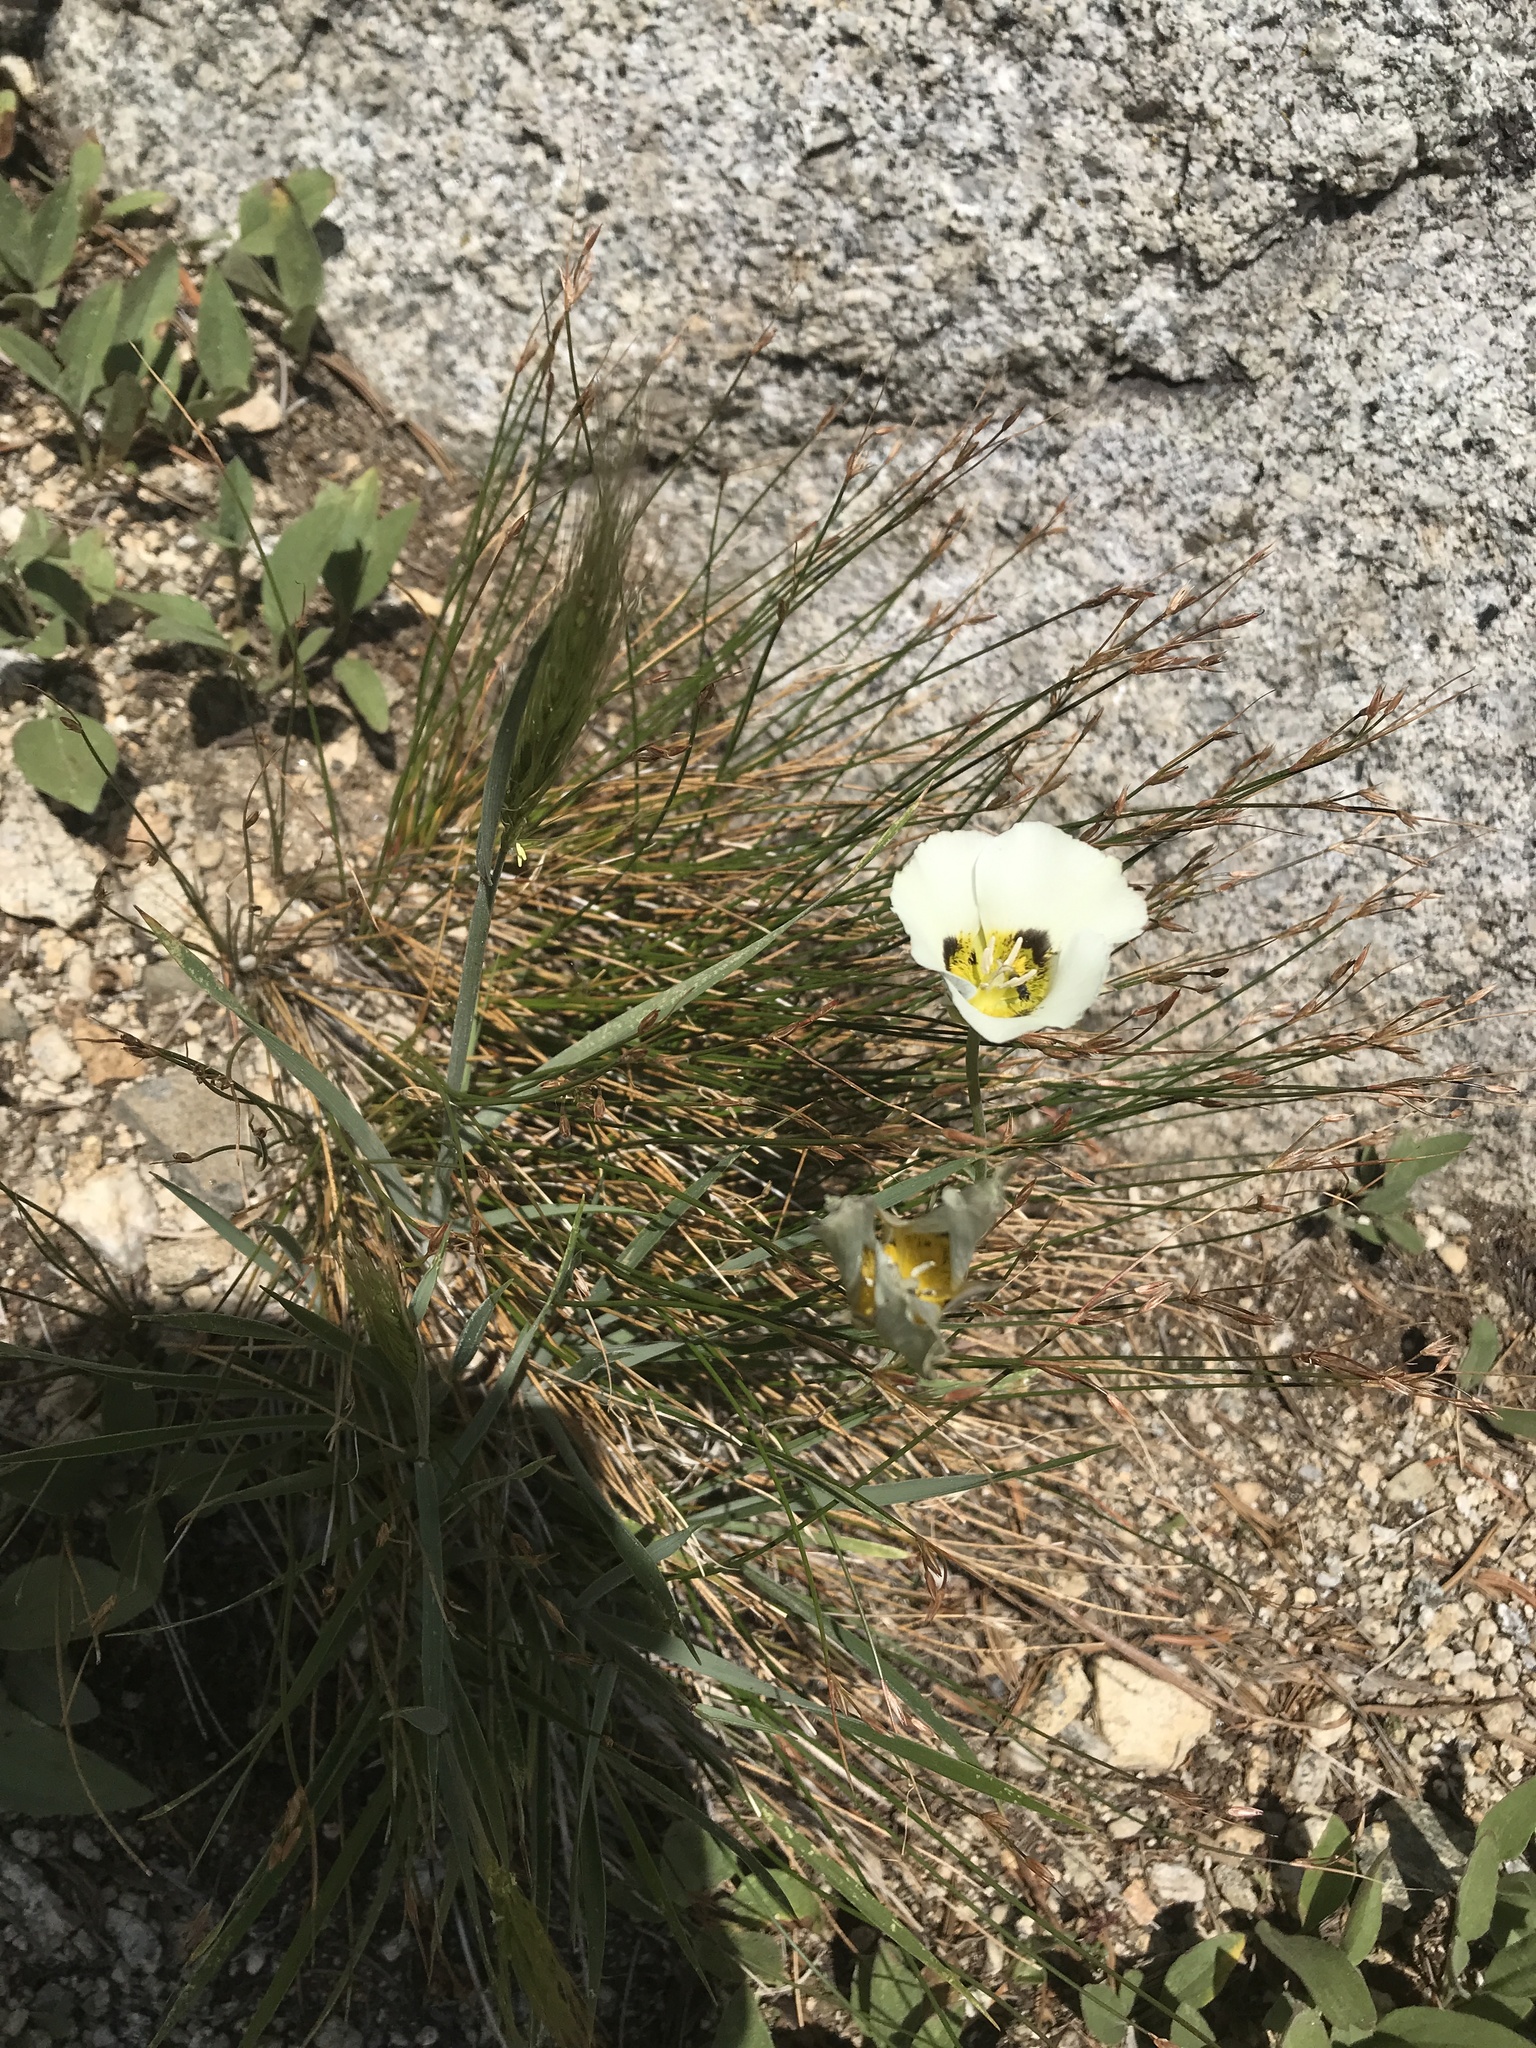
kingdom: Plantae
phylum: Tracheophyta
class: Liliopsida
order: Liliales
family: Liliaceae
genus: Calochortus
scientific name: Calochortus leichtlinii
